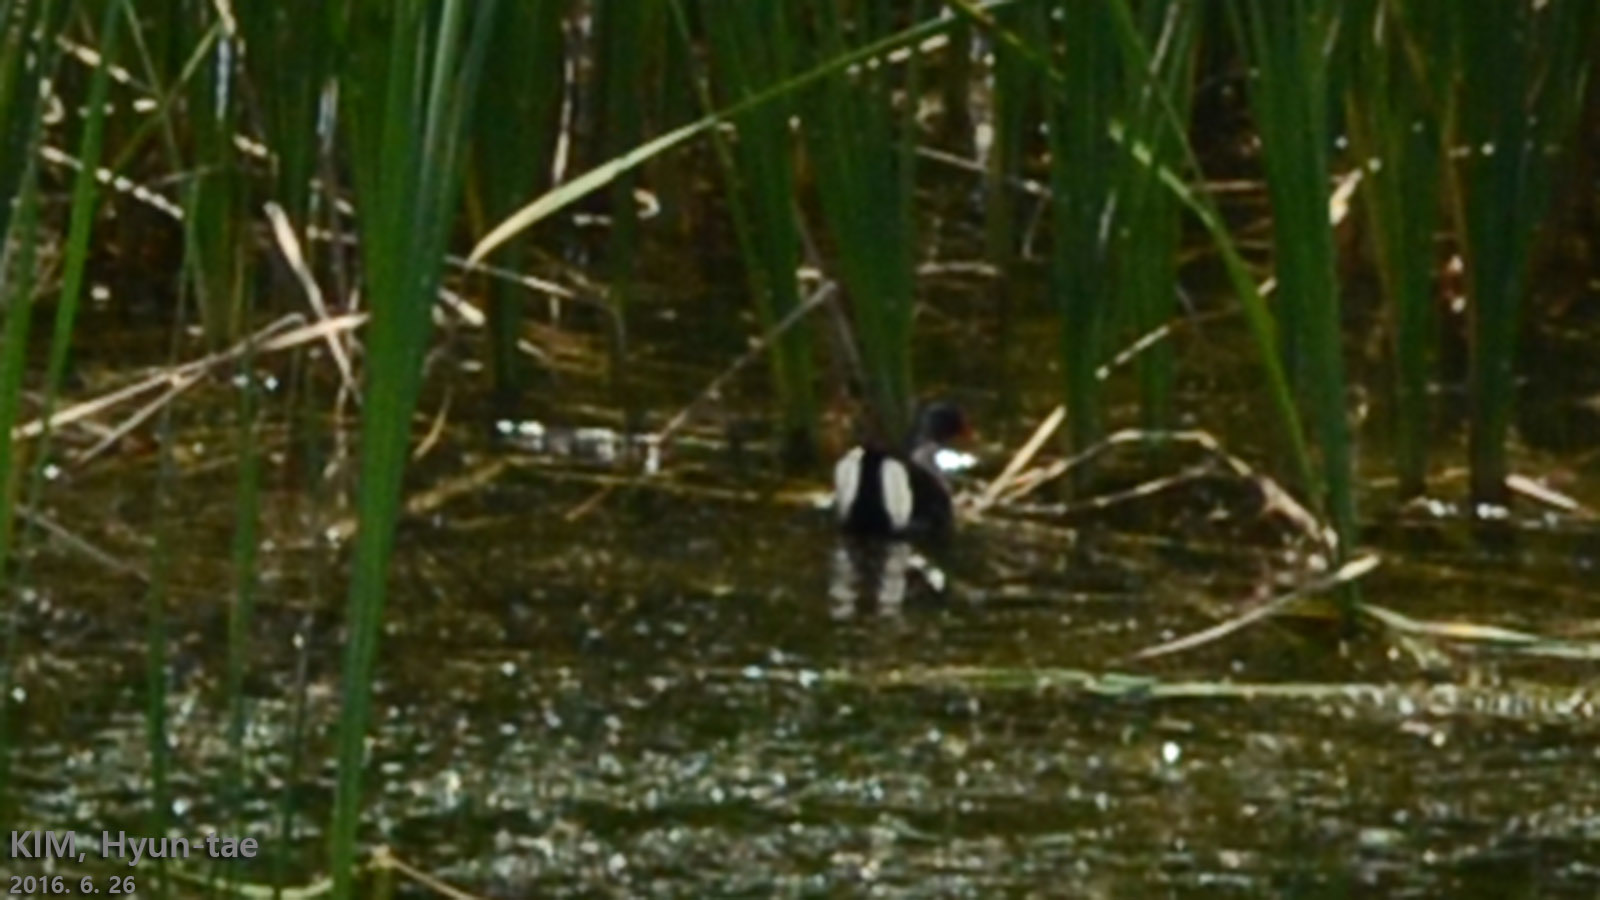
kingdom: Animalia
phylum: Chordata
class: Aves
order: Gruiformes
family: Rallidae
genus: Gallinula
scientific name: Gallinula chloropus
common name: Common moorhen
